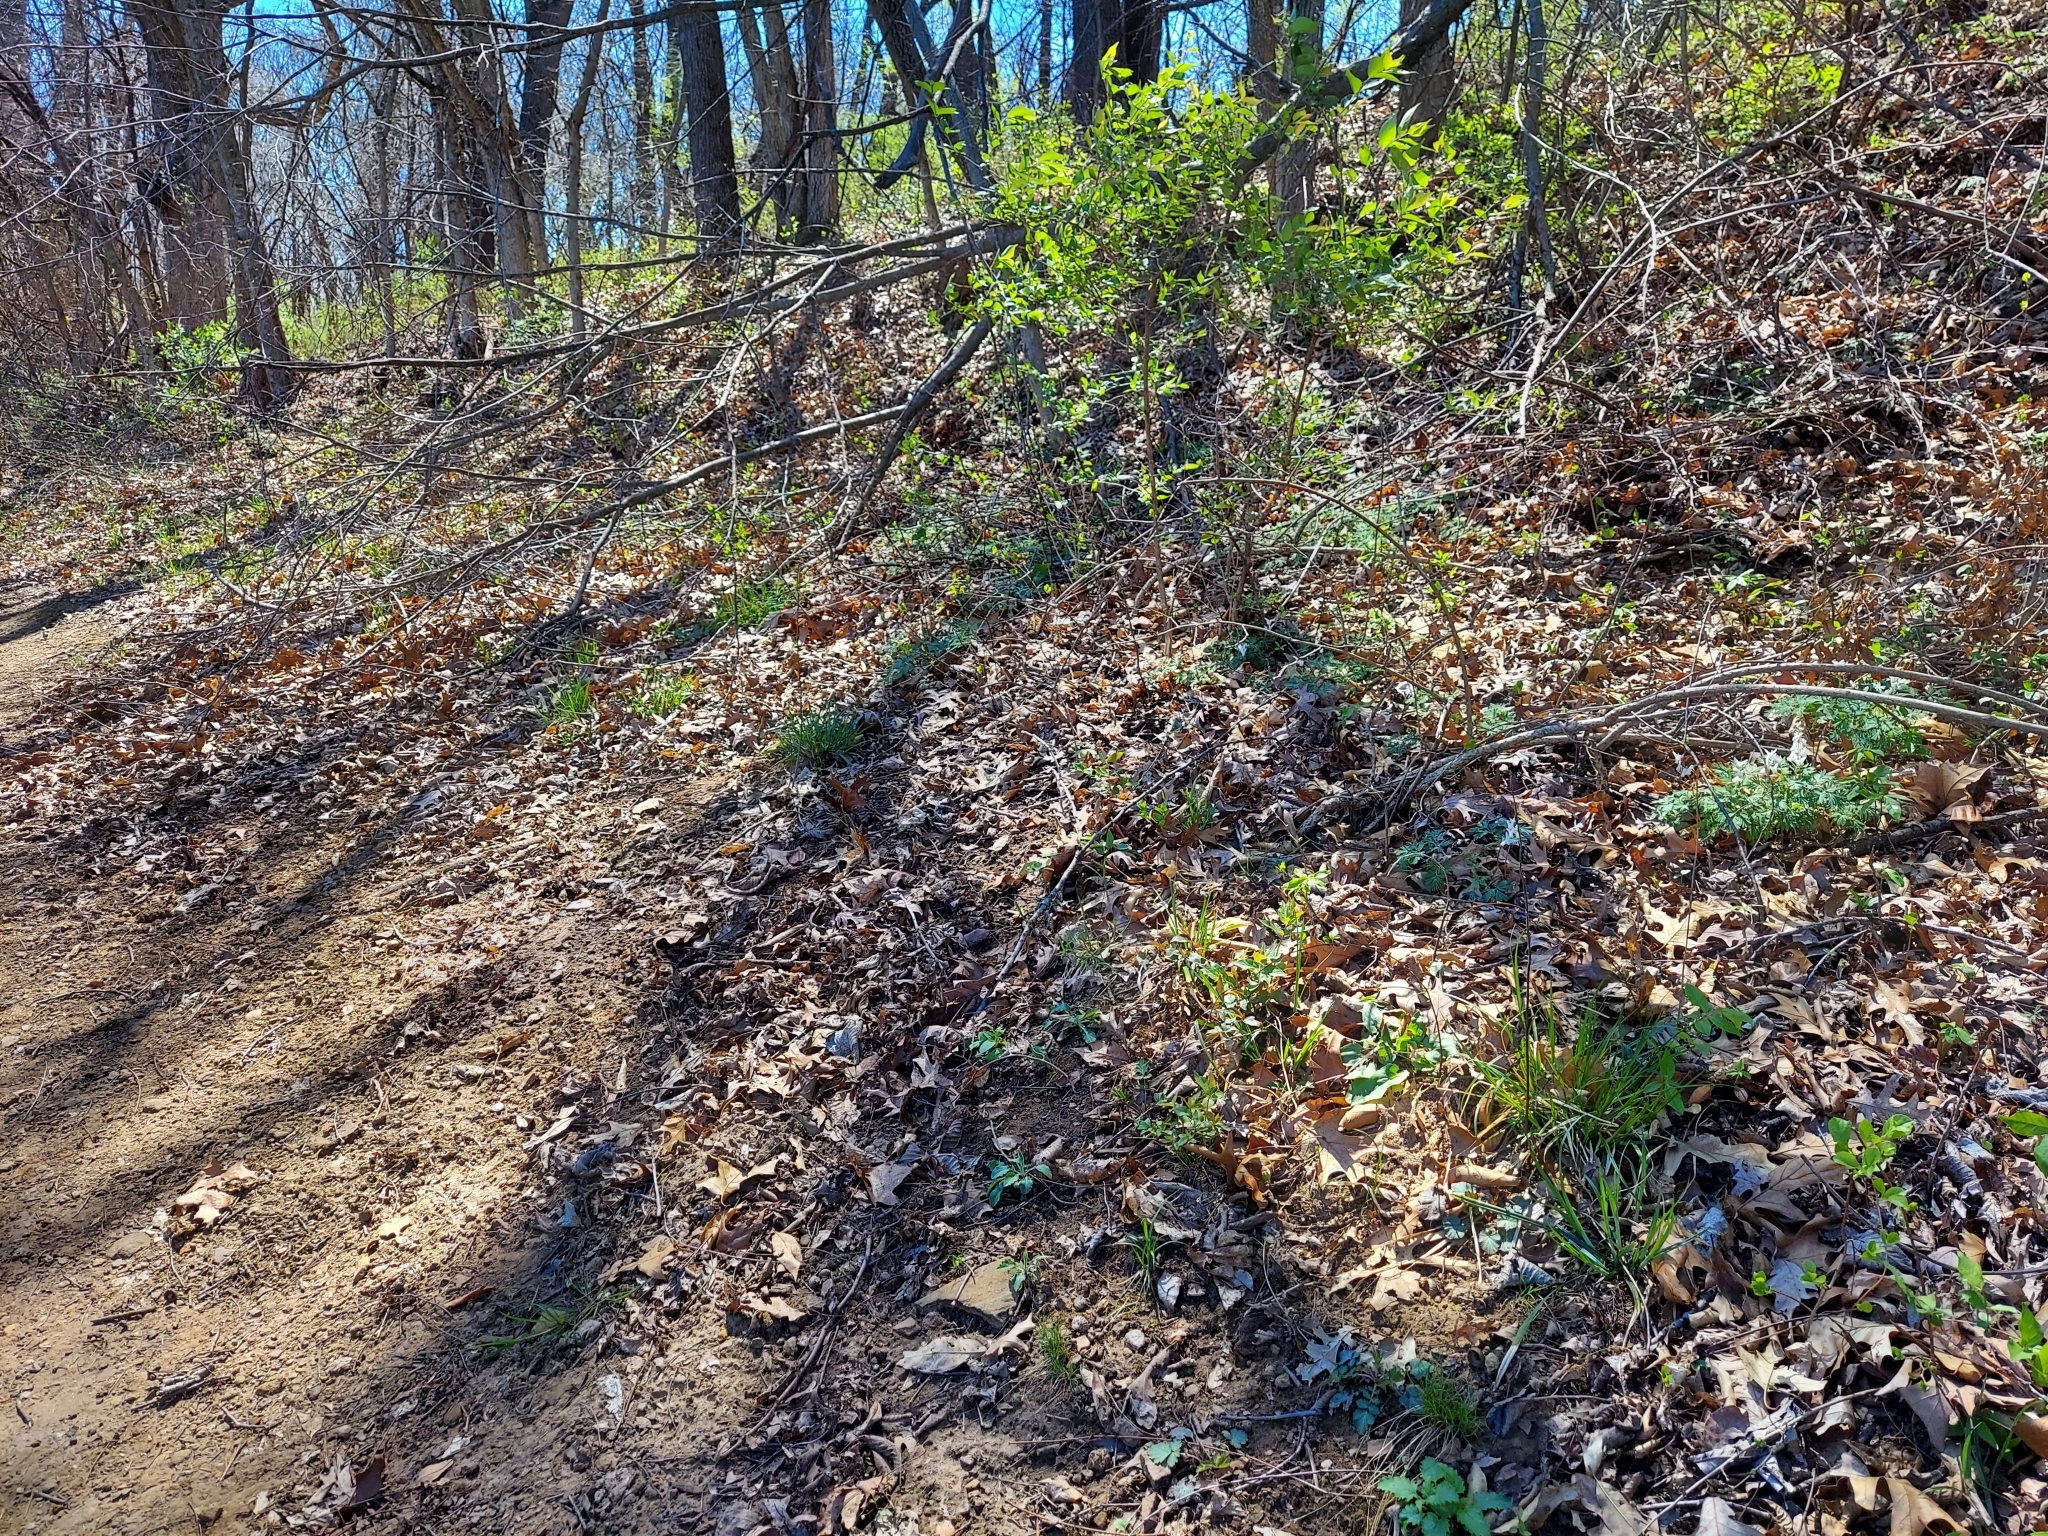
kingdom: Plantae
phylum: Tracheophyta
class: Magnoliopsida
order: Ranunculales
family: Papaveraceae
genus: Dicentra
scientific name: Dicentra cucullaria
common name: Dutchman's breeches
